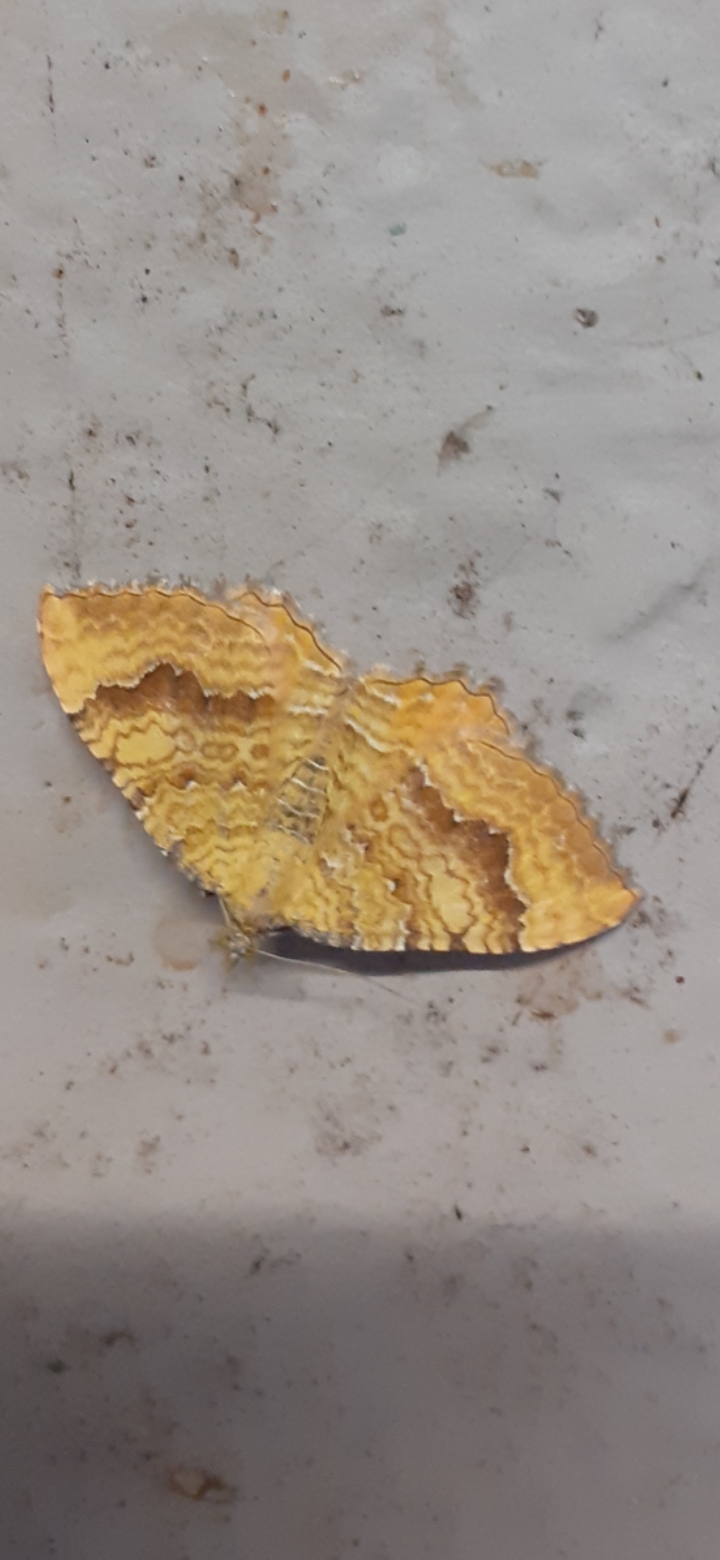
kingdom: Animalia
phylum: Arthropoda
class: Insecta
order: Lepidoptera
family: Geometridae
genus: Camptogramma
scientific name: Camptogramma bilineata
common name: Yellow shell
